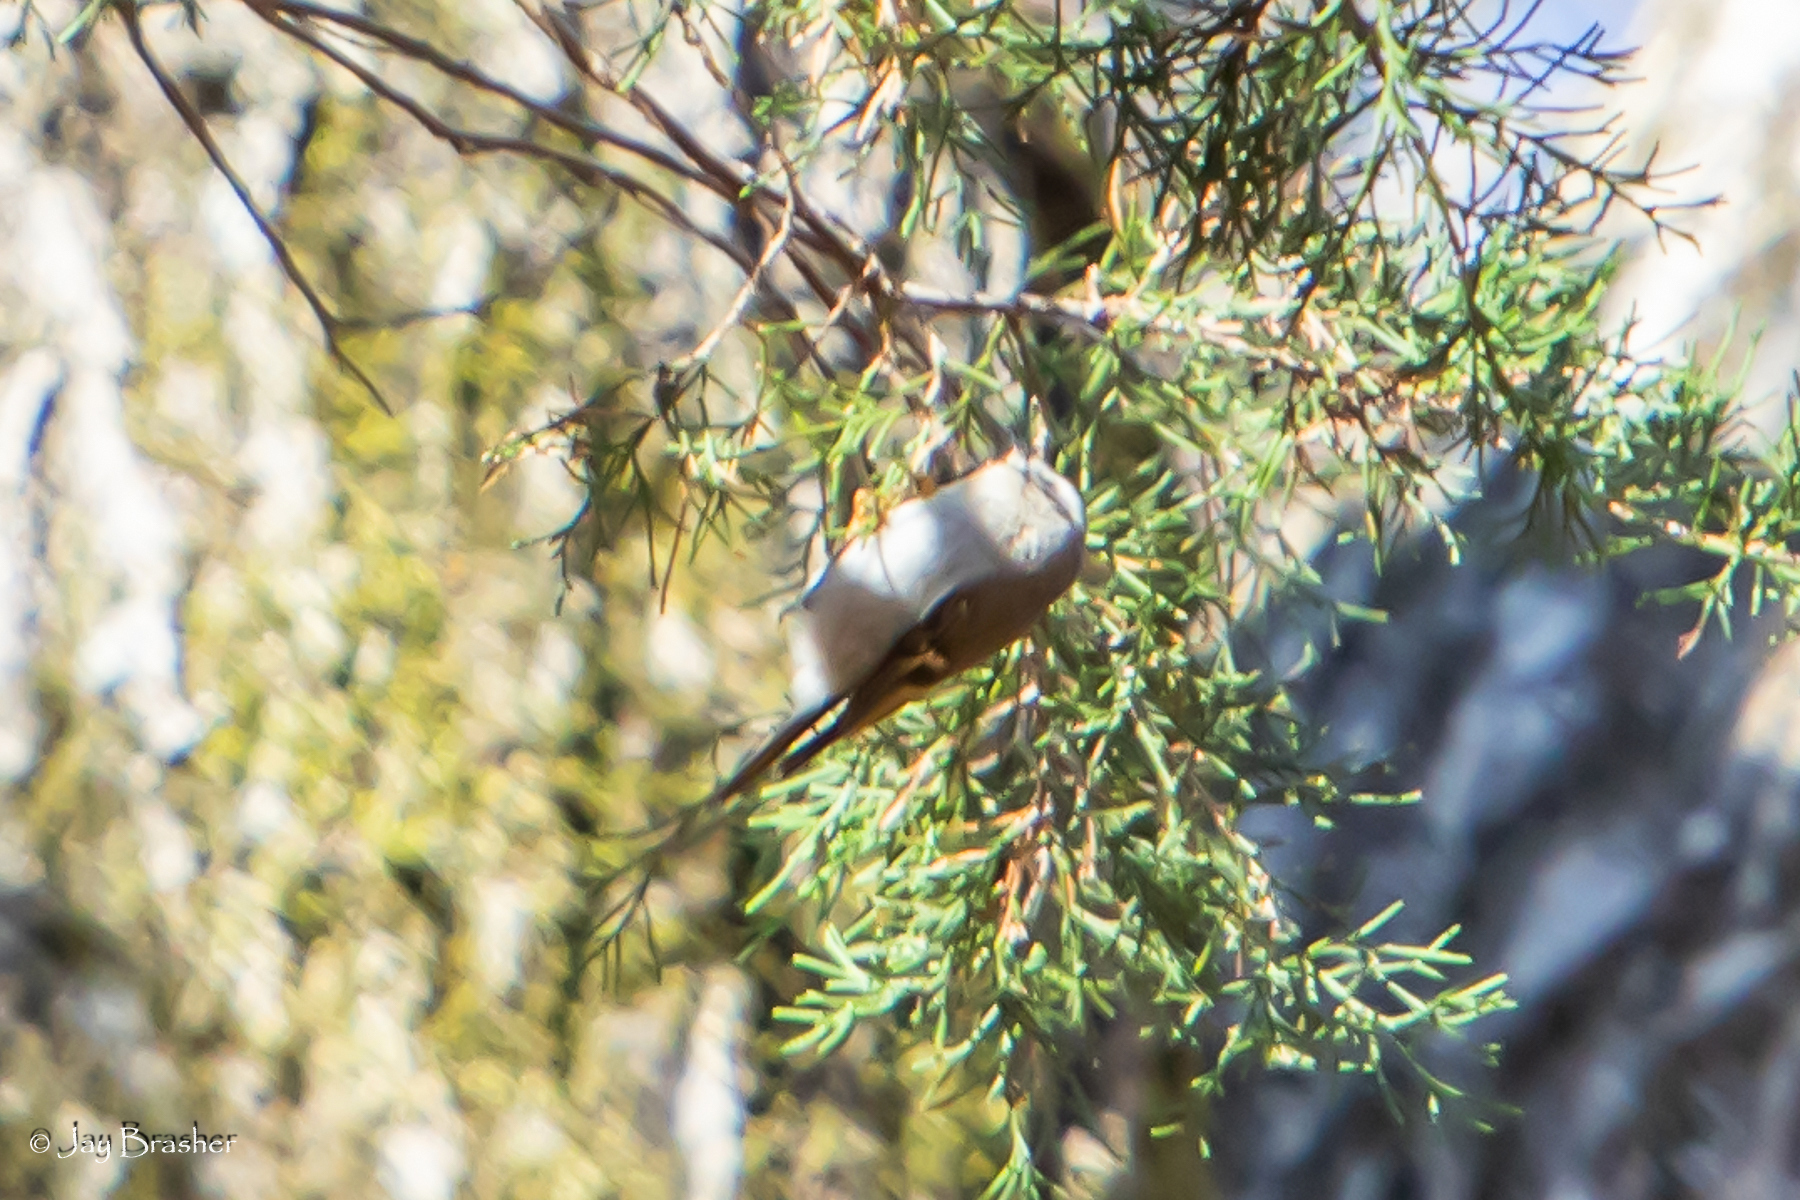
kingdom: Animalia
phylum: Chordata
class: Aves
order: Passeriformes
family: Regulidae
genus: Regulus
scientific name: Regulus satrapa
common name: Golden-crowned kinglet
